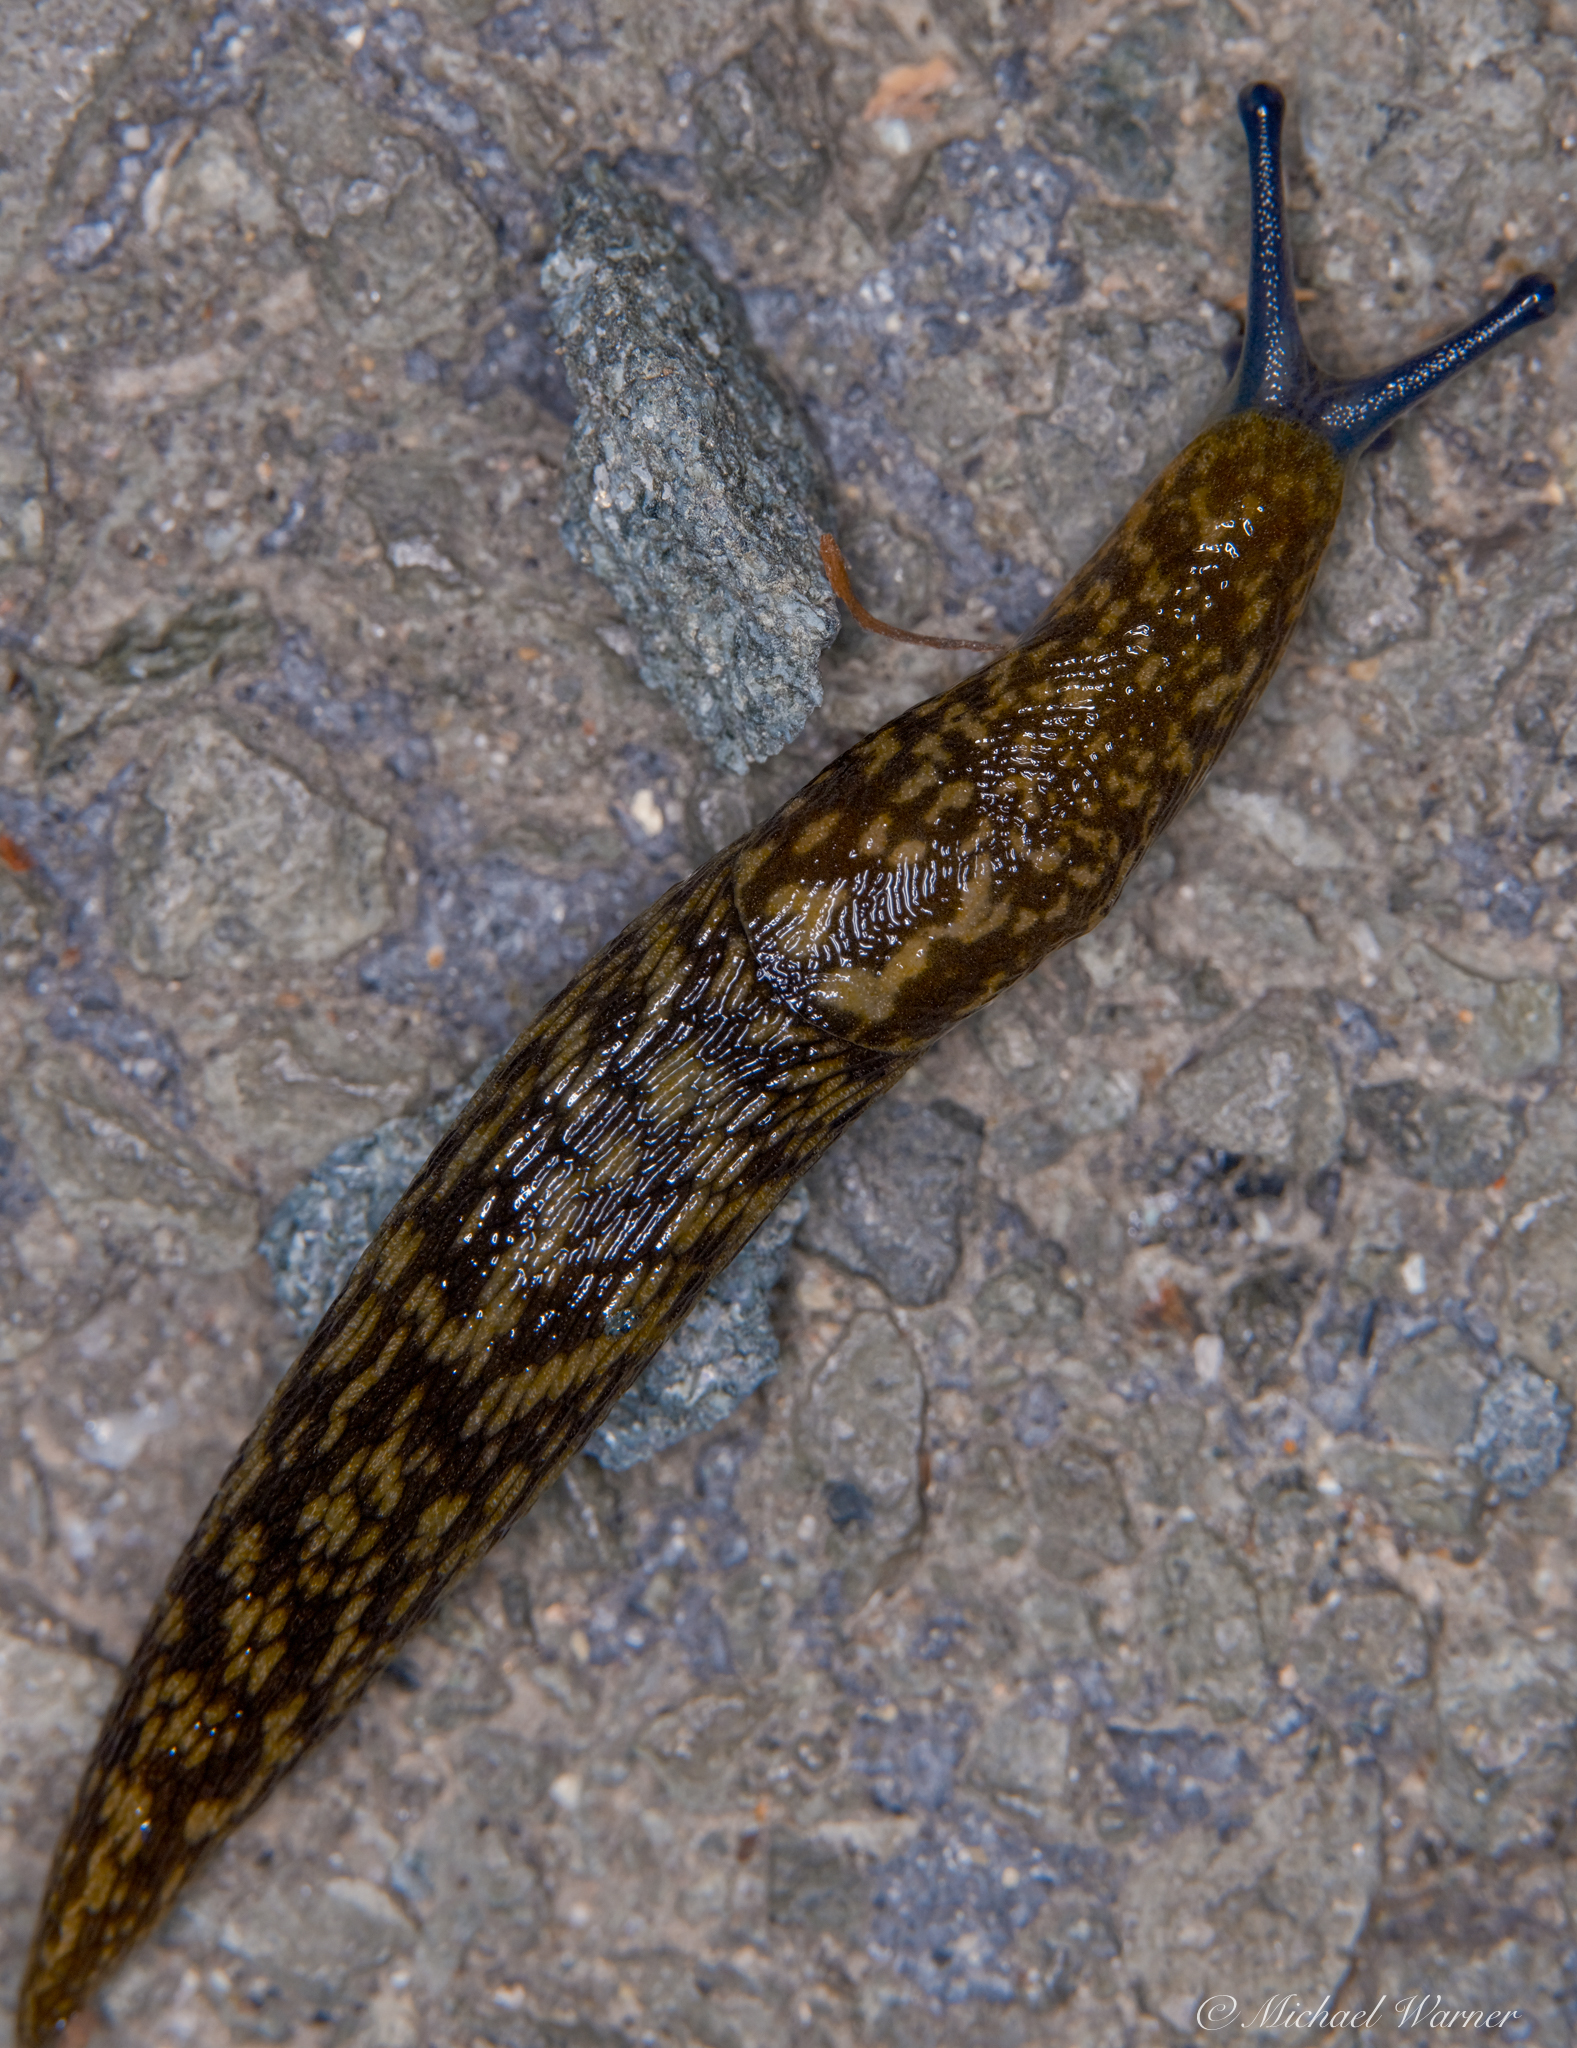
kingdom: Animalia
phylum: Mollusca
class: Gastropoda
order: Stylommatophora
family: Limacidae
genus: Limacus
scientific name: Limacus flavus
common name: Yellow gardenslug
